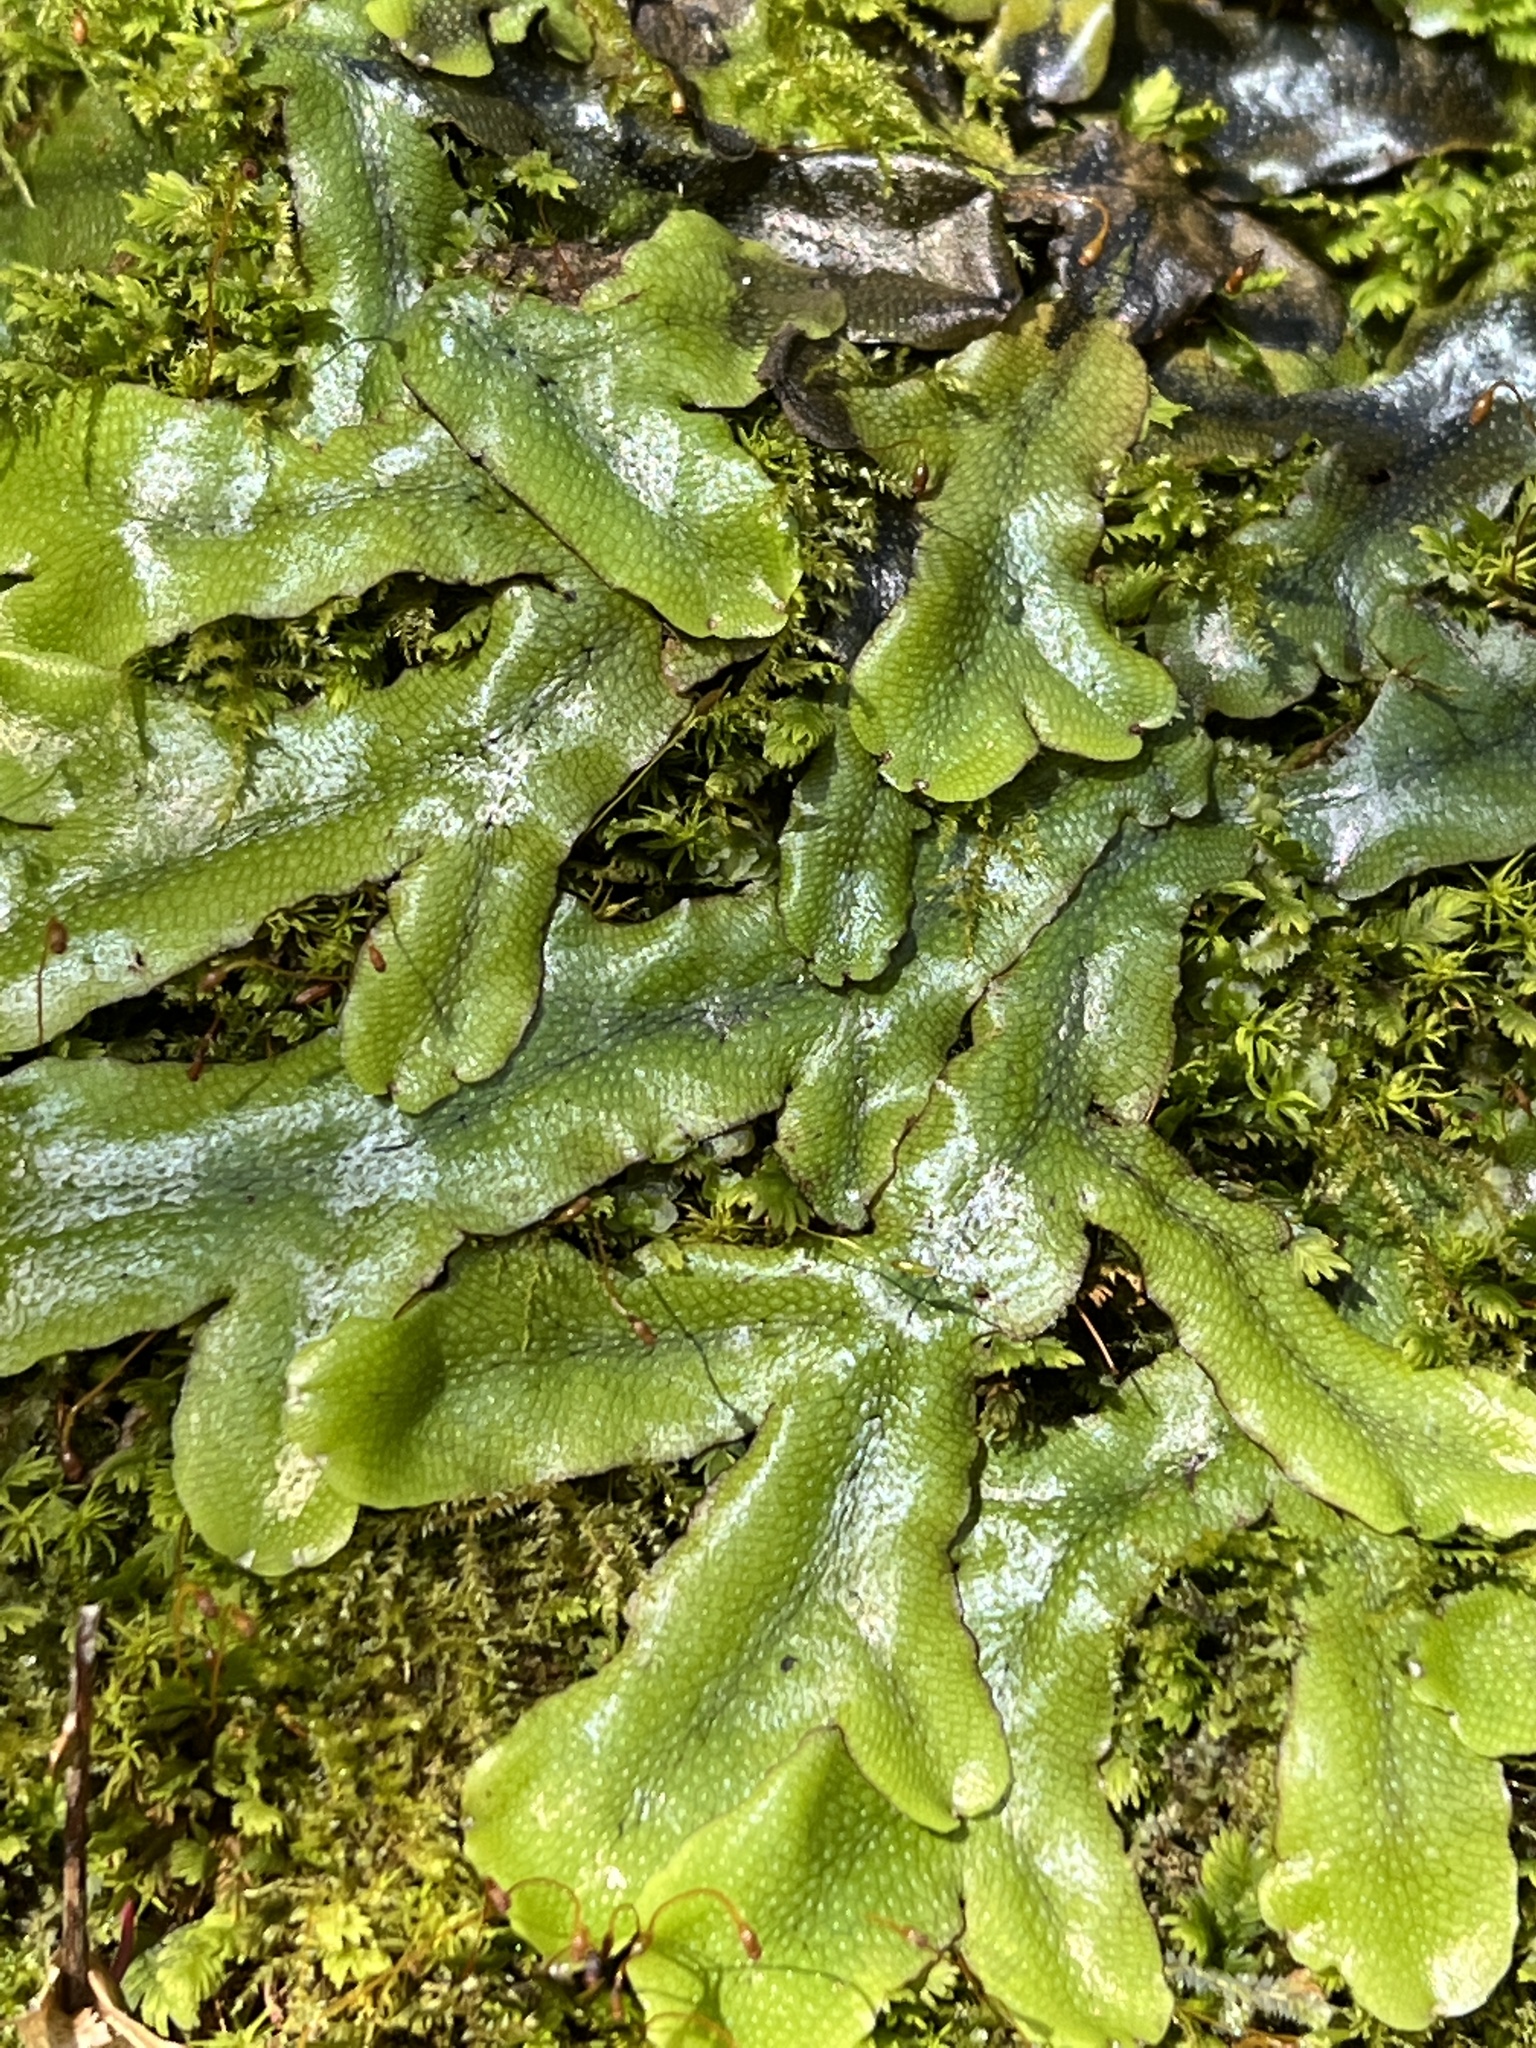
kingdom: Plantae
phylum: Marchantiophyta
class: Marchantiopsida
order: Marchantiales
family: Conocephalaceae
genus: Conocephalum
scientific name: Conocephalum conicum
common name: Great scented liverwort
